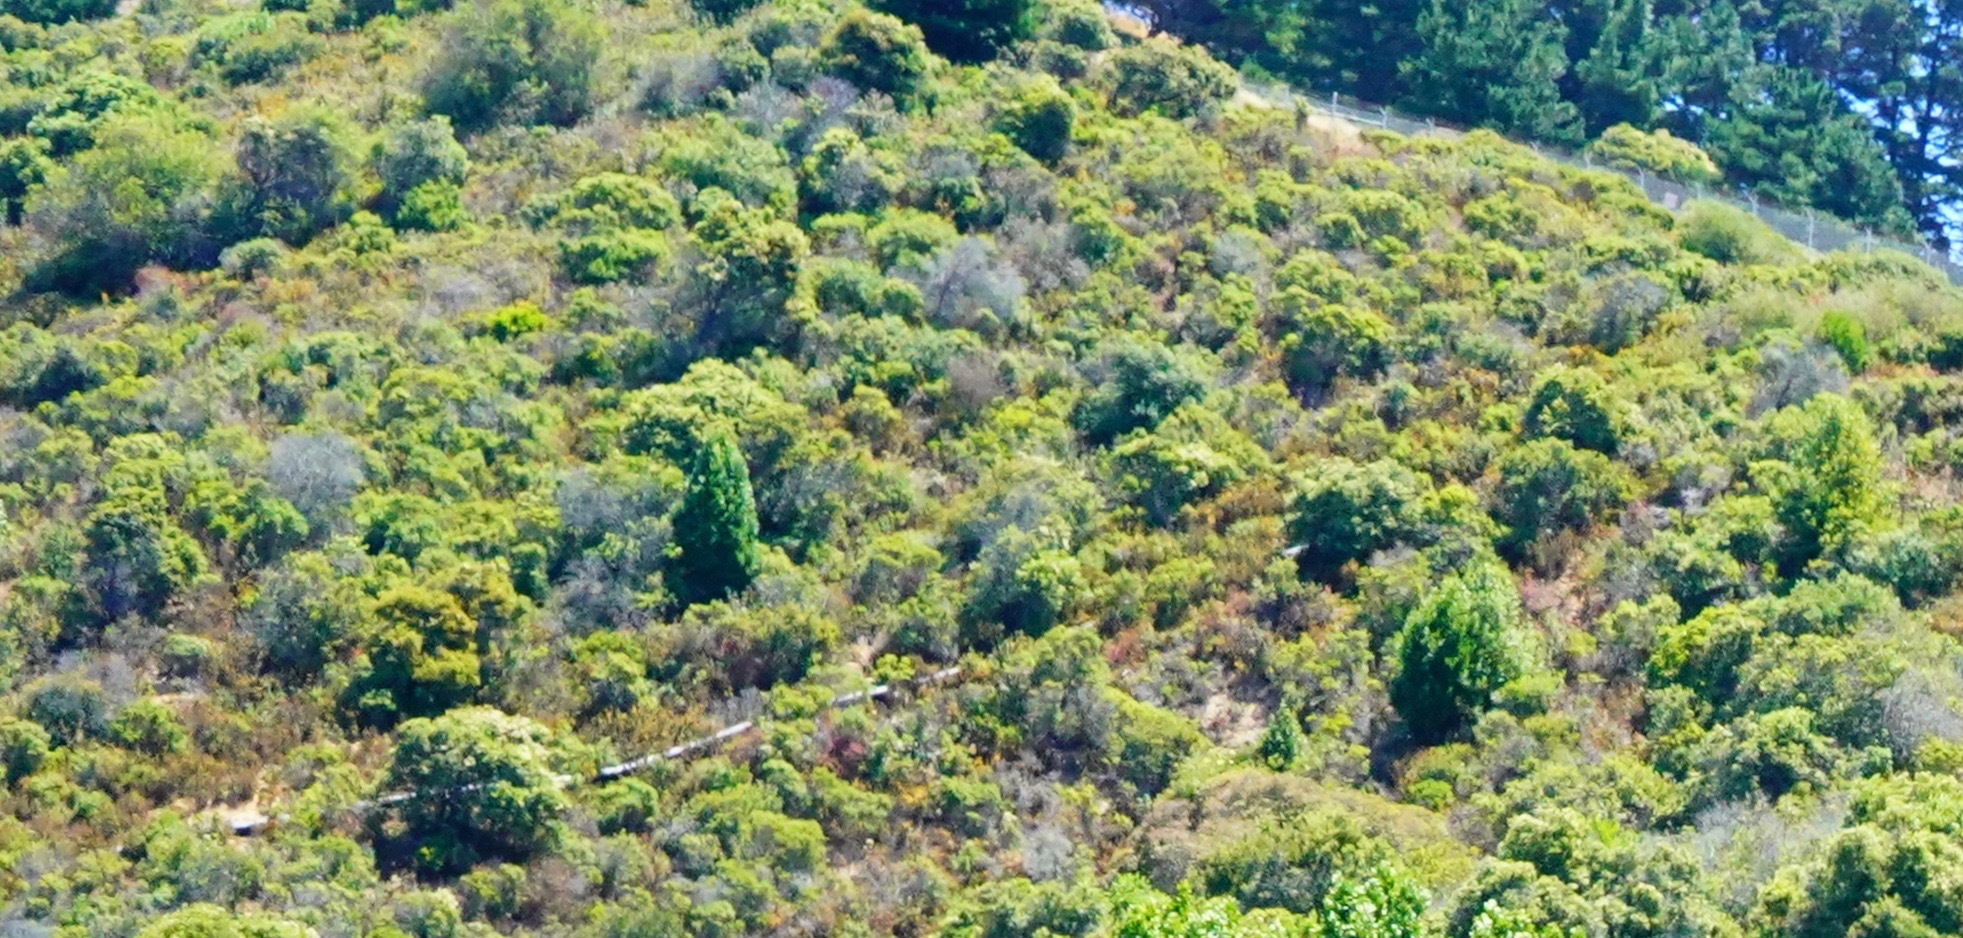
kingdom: Plantae
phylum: Tracheophyta
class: Magnoliopsida
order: Asterales
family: Asteraceae
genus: Baccharis
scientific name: Baccharis pilularis
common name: Coyotebrush
